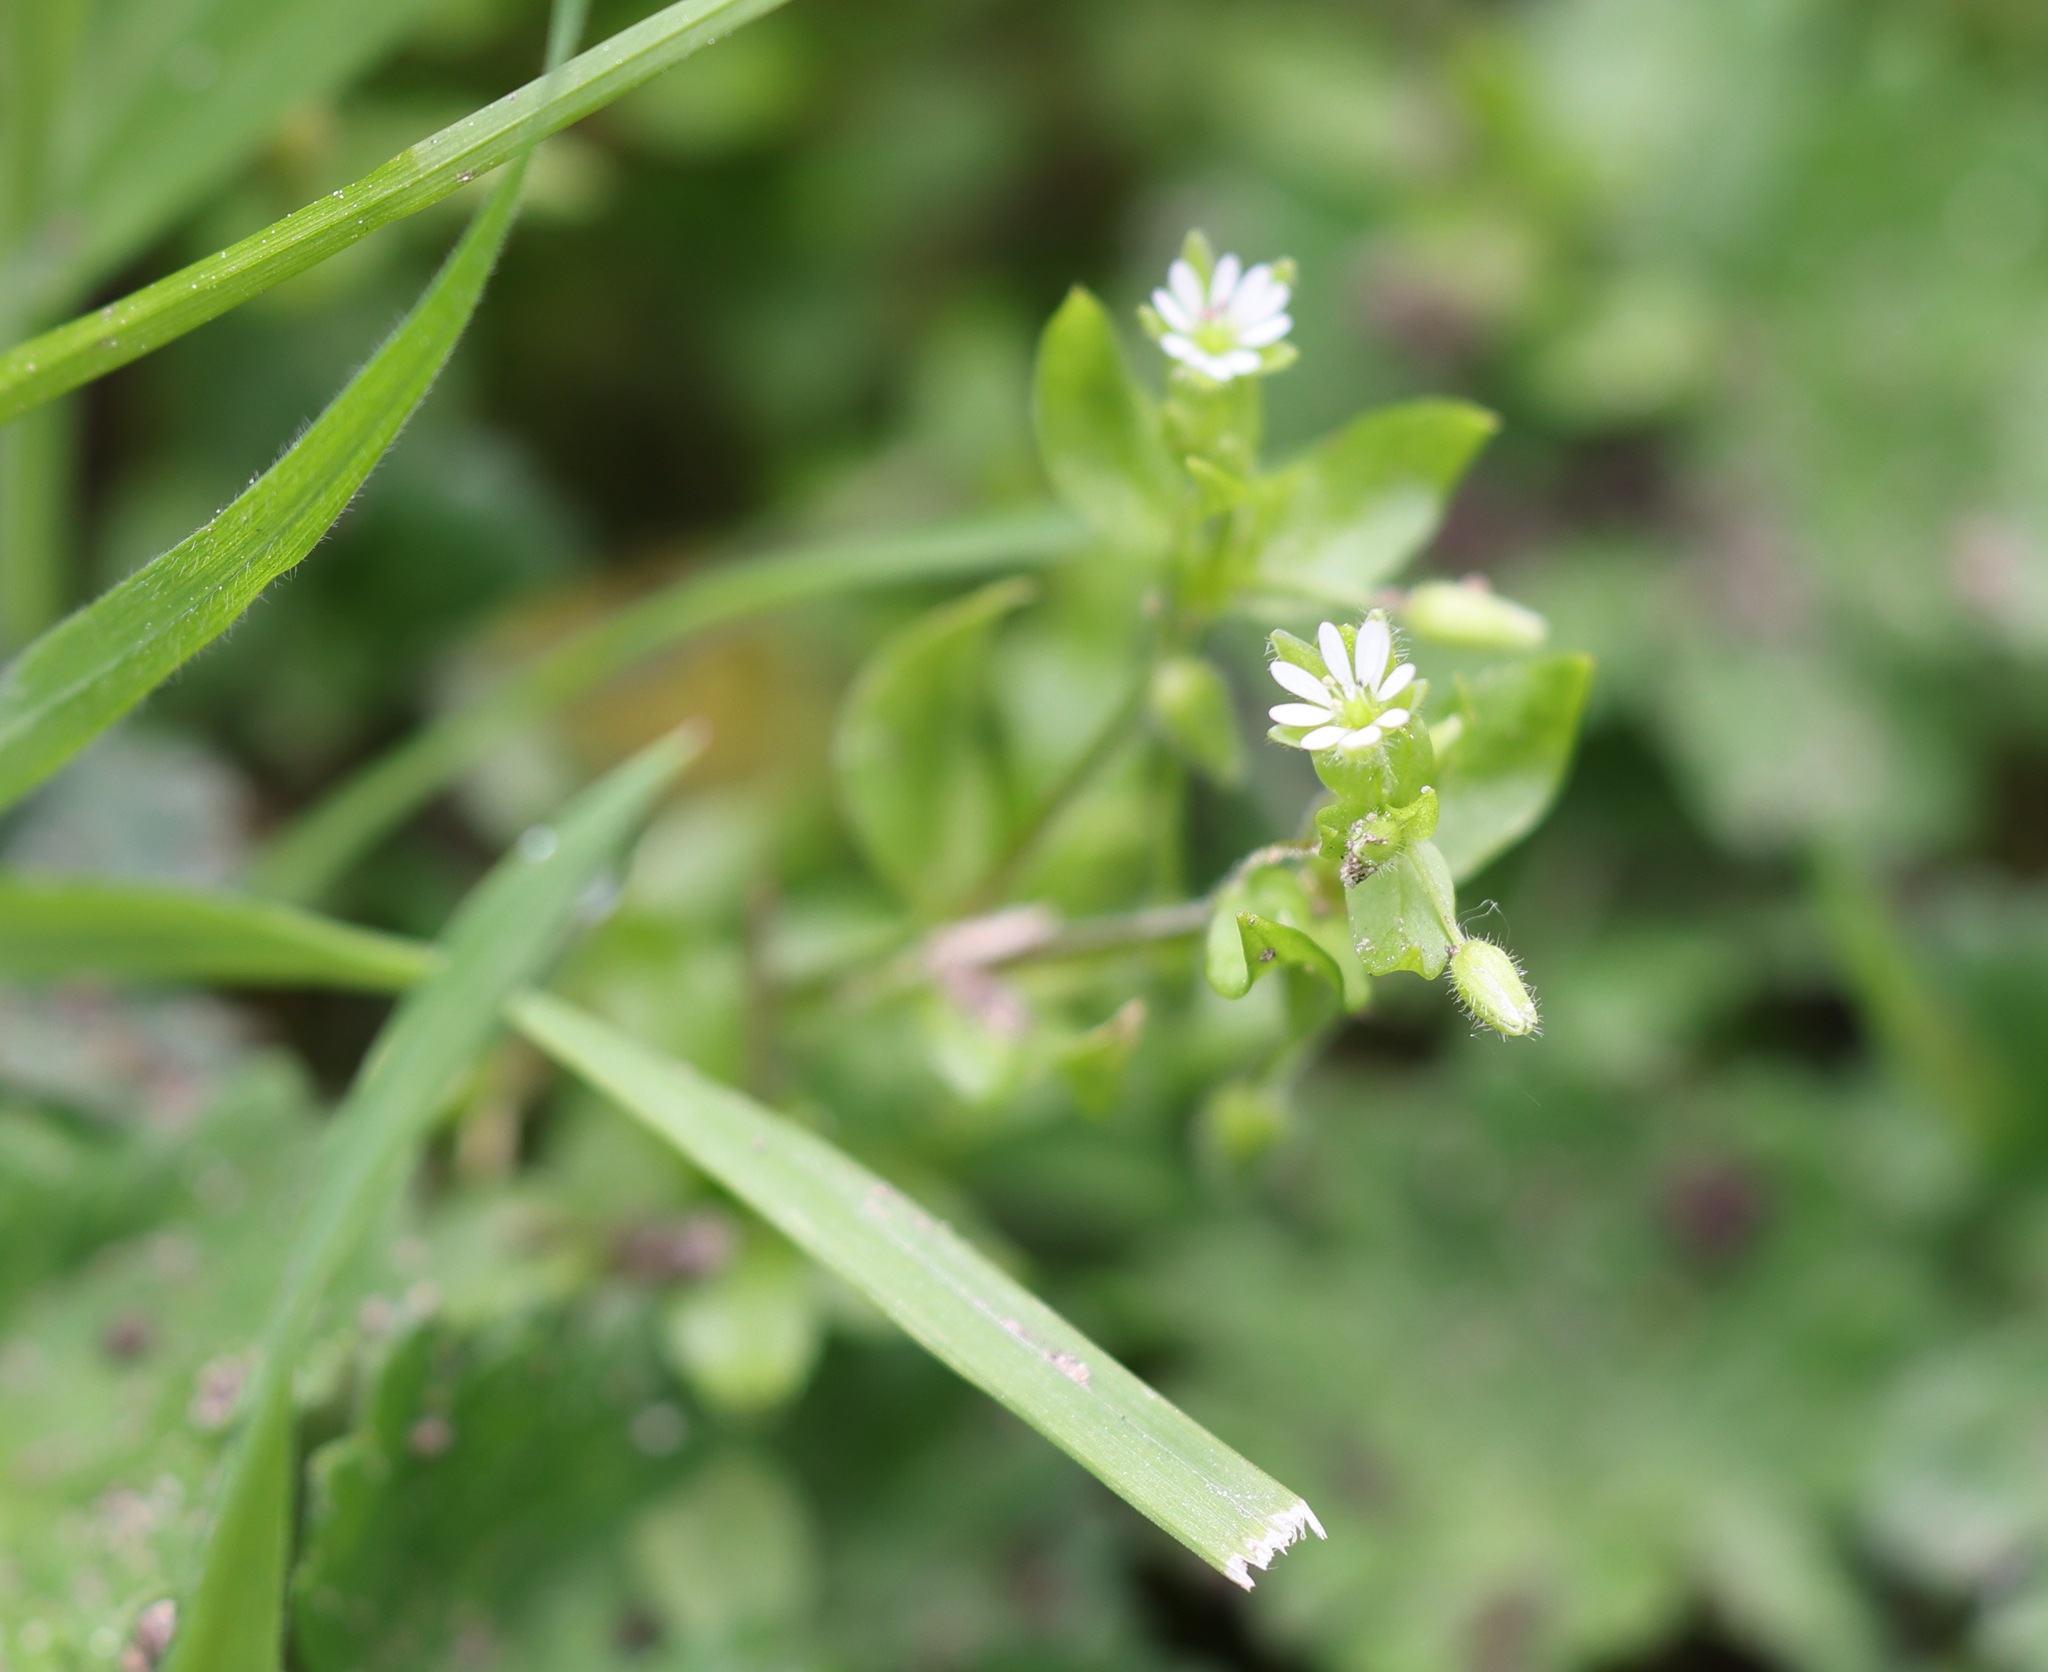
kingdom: Plantae
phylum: Tracheophyta
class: Magnoliopsida
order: Caryophyllales
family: Caryophyllaceae
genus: Stellaria
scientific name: Stellaria media
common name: Common chickweed
